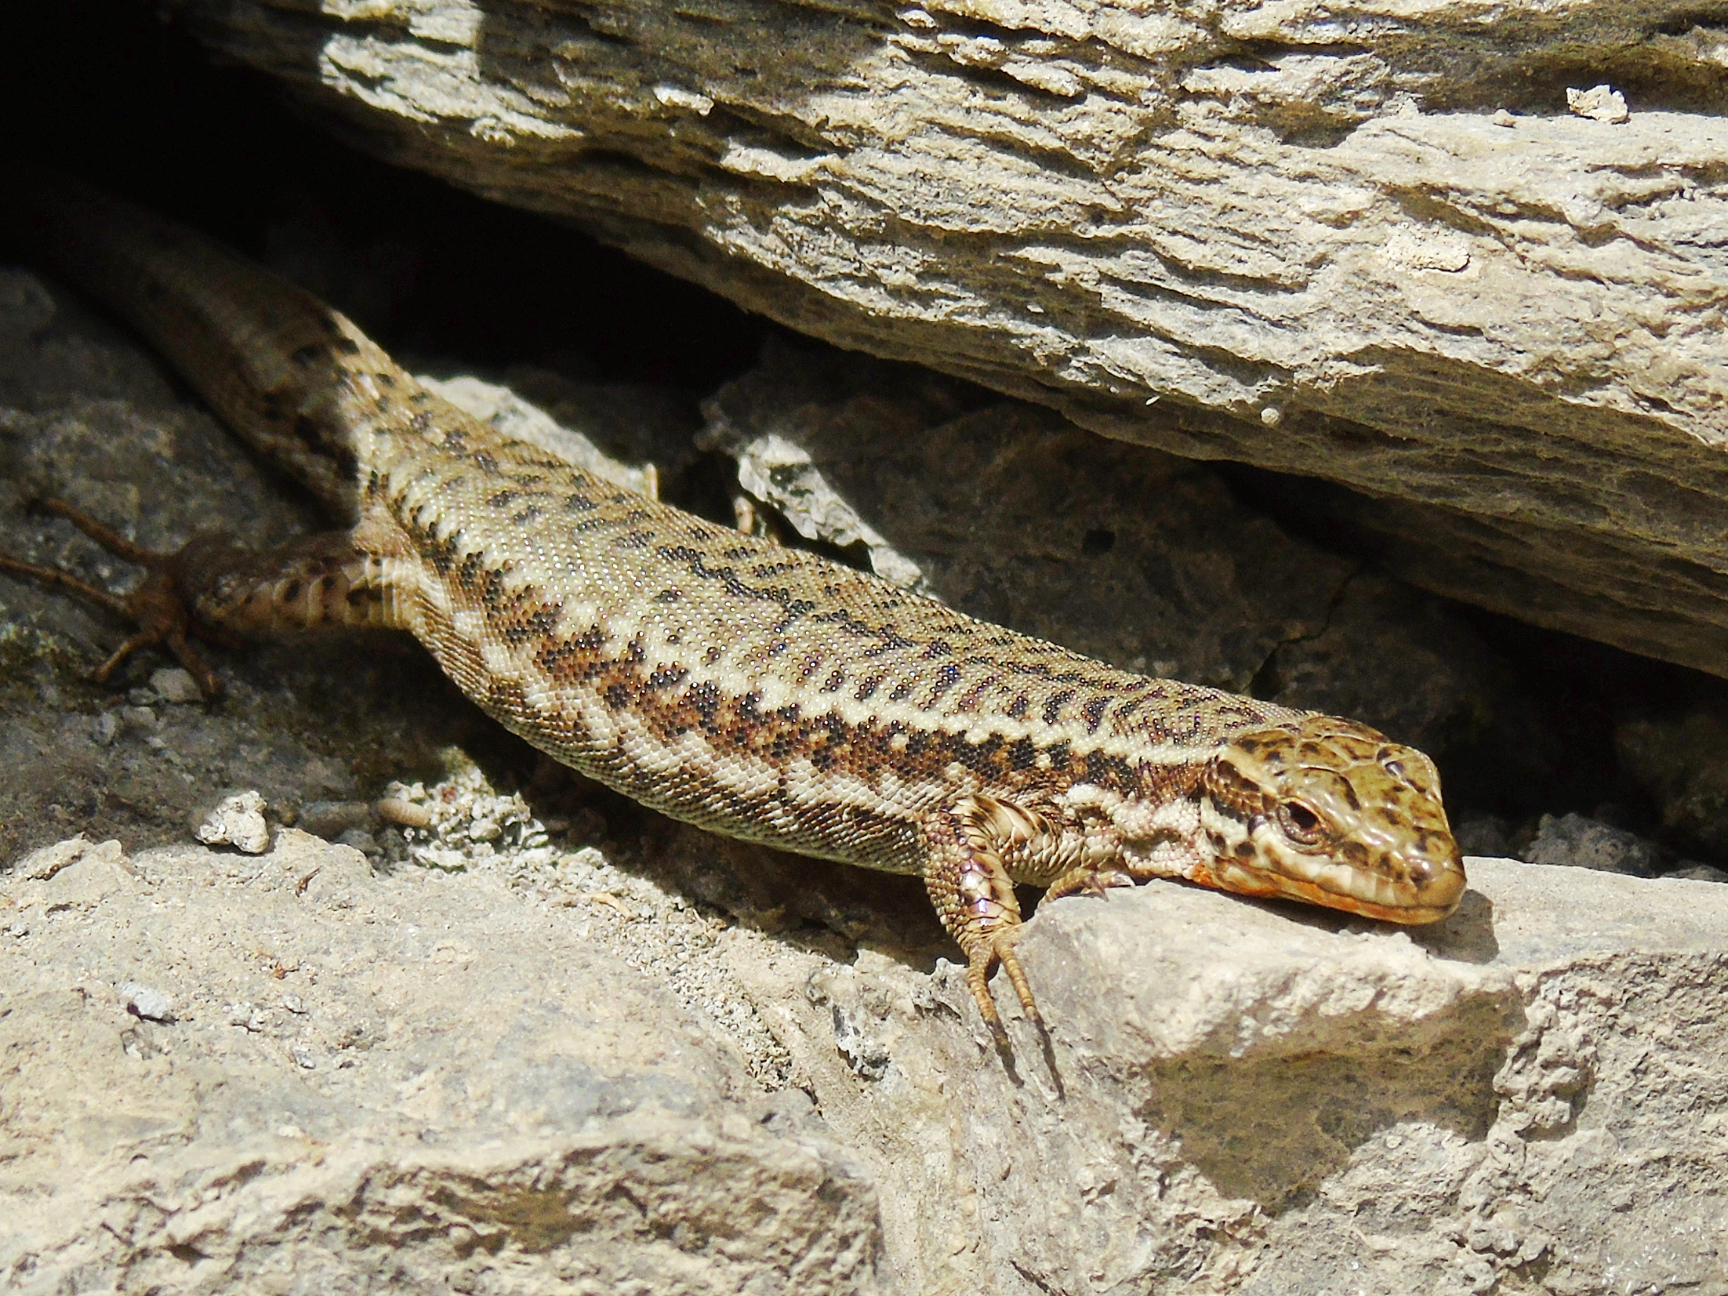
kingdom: Animalia
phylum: Chordata
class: Squamata
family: Lacertidae
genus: Podarcis
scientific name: Podarcis muralis
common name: Common wall lizard
